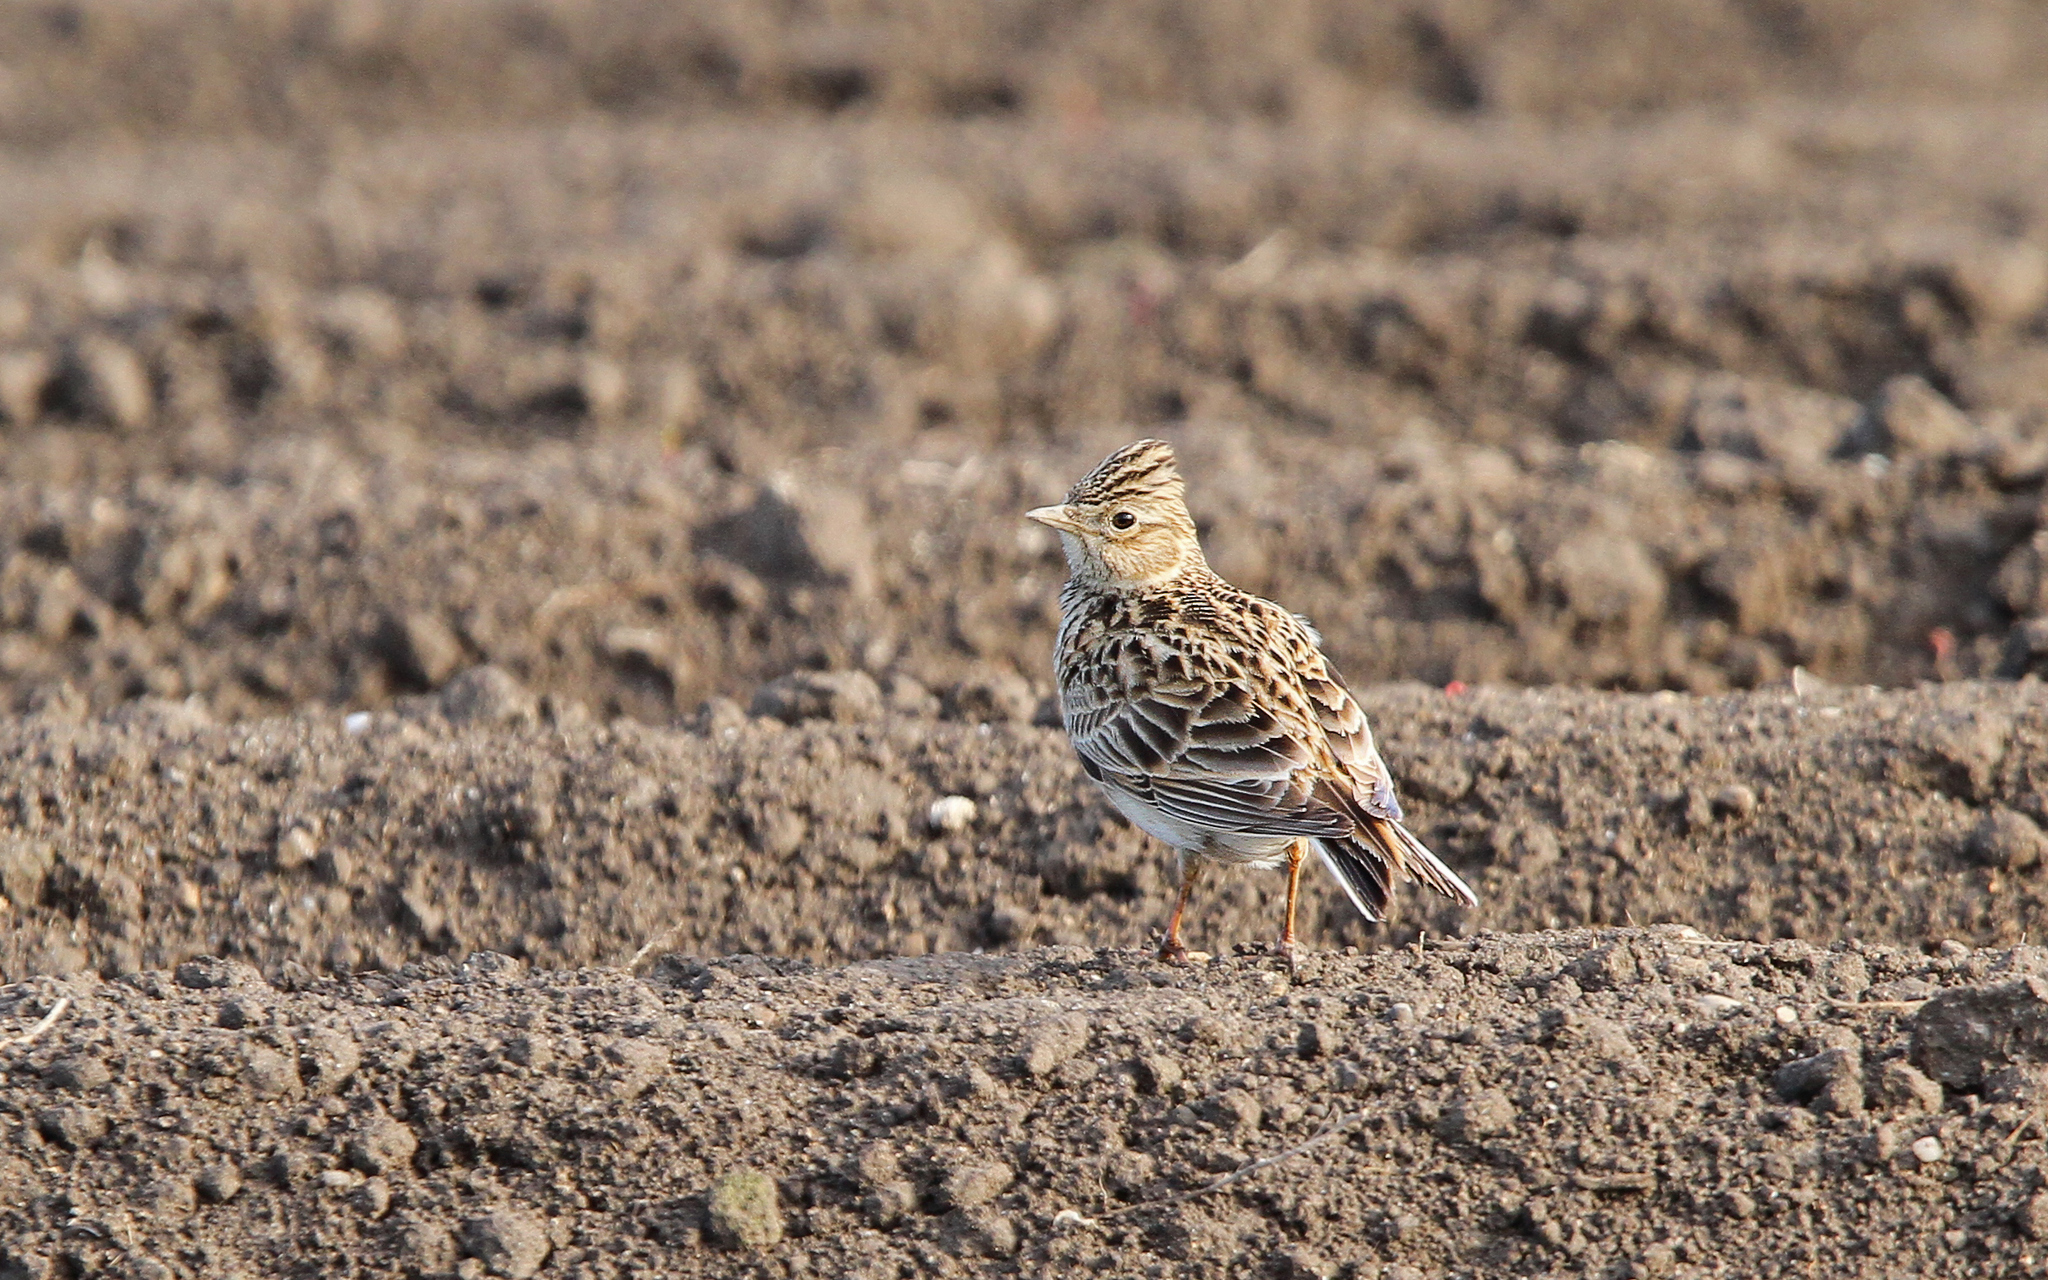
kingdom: Animalia
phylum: Chordata
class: Aves
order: Passeriformes
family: Alaudidae
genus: Alauda
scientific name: Alauda arvensis
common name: Eurasian skylark
